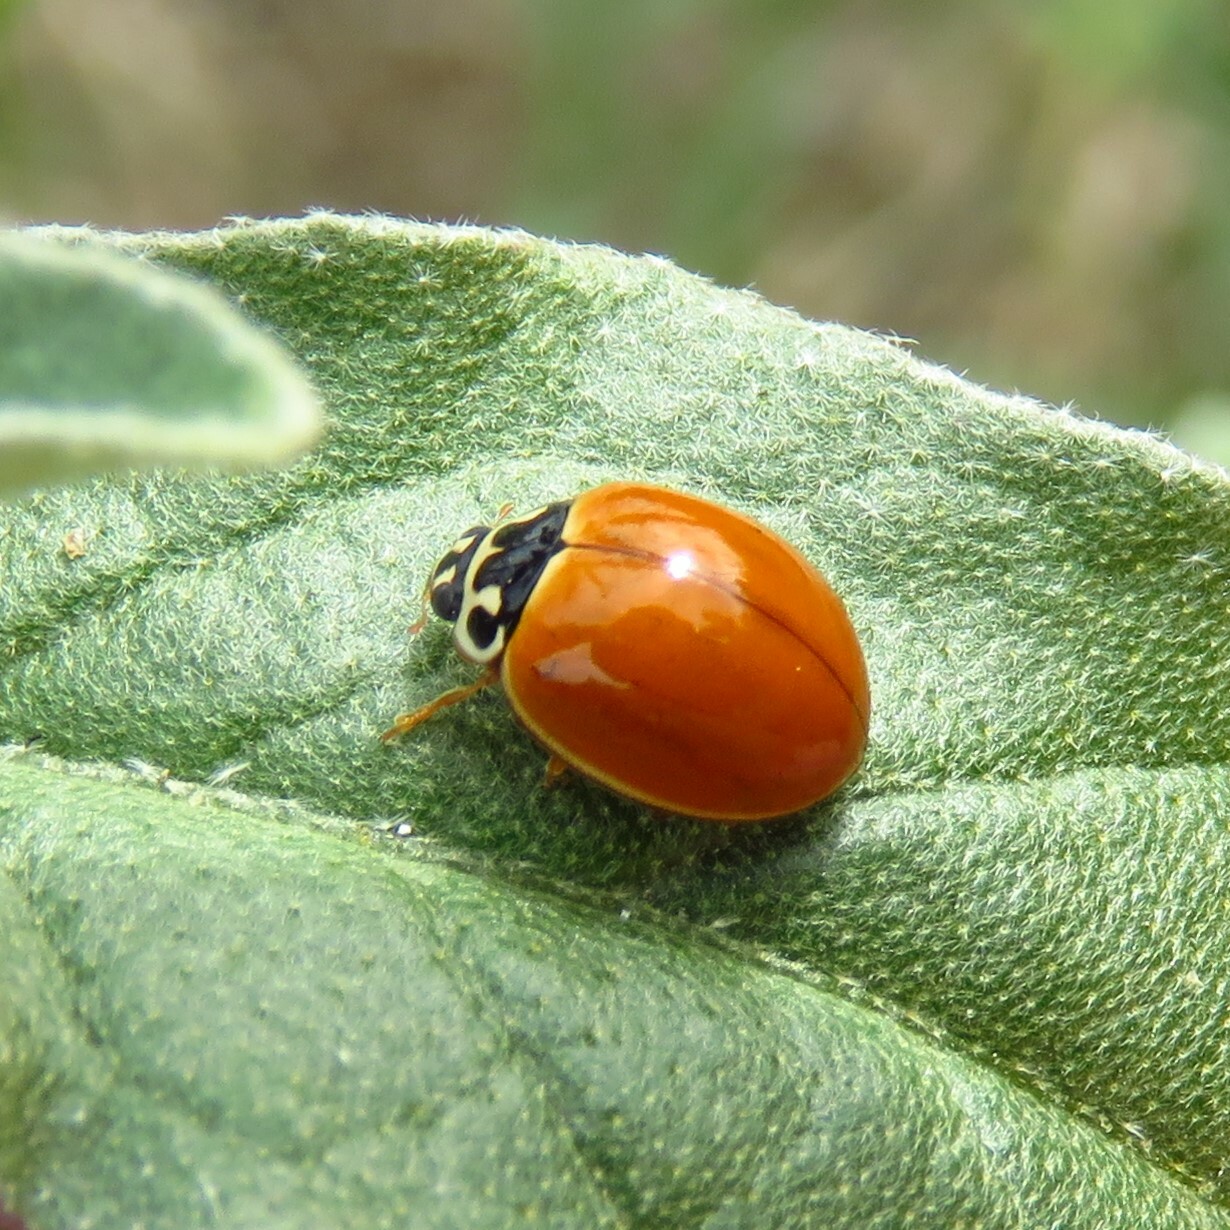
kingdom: Animalia
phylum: Arthropoda
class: Insecta
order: Coleoptera
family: Coccinellidae
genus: Cycloneda
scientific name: Cycloneda munda
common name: Polished lady beetle
